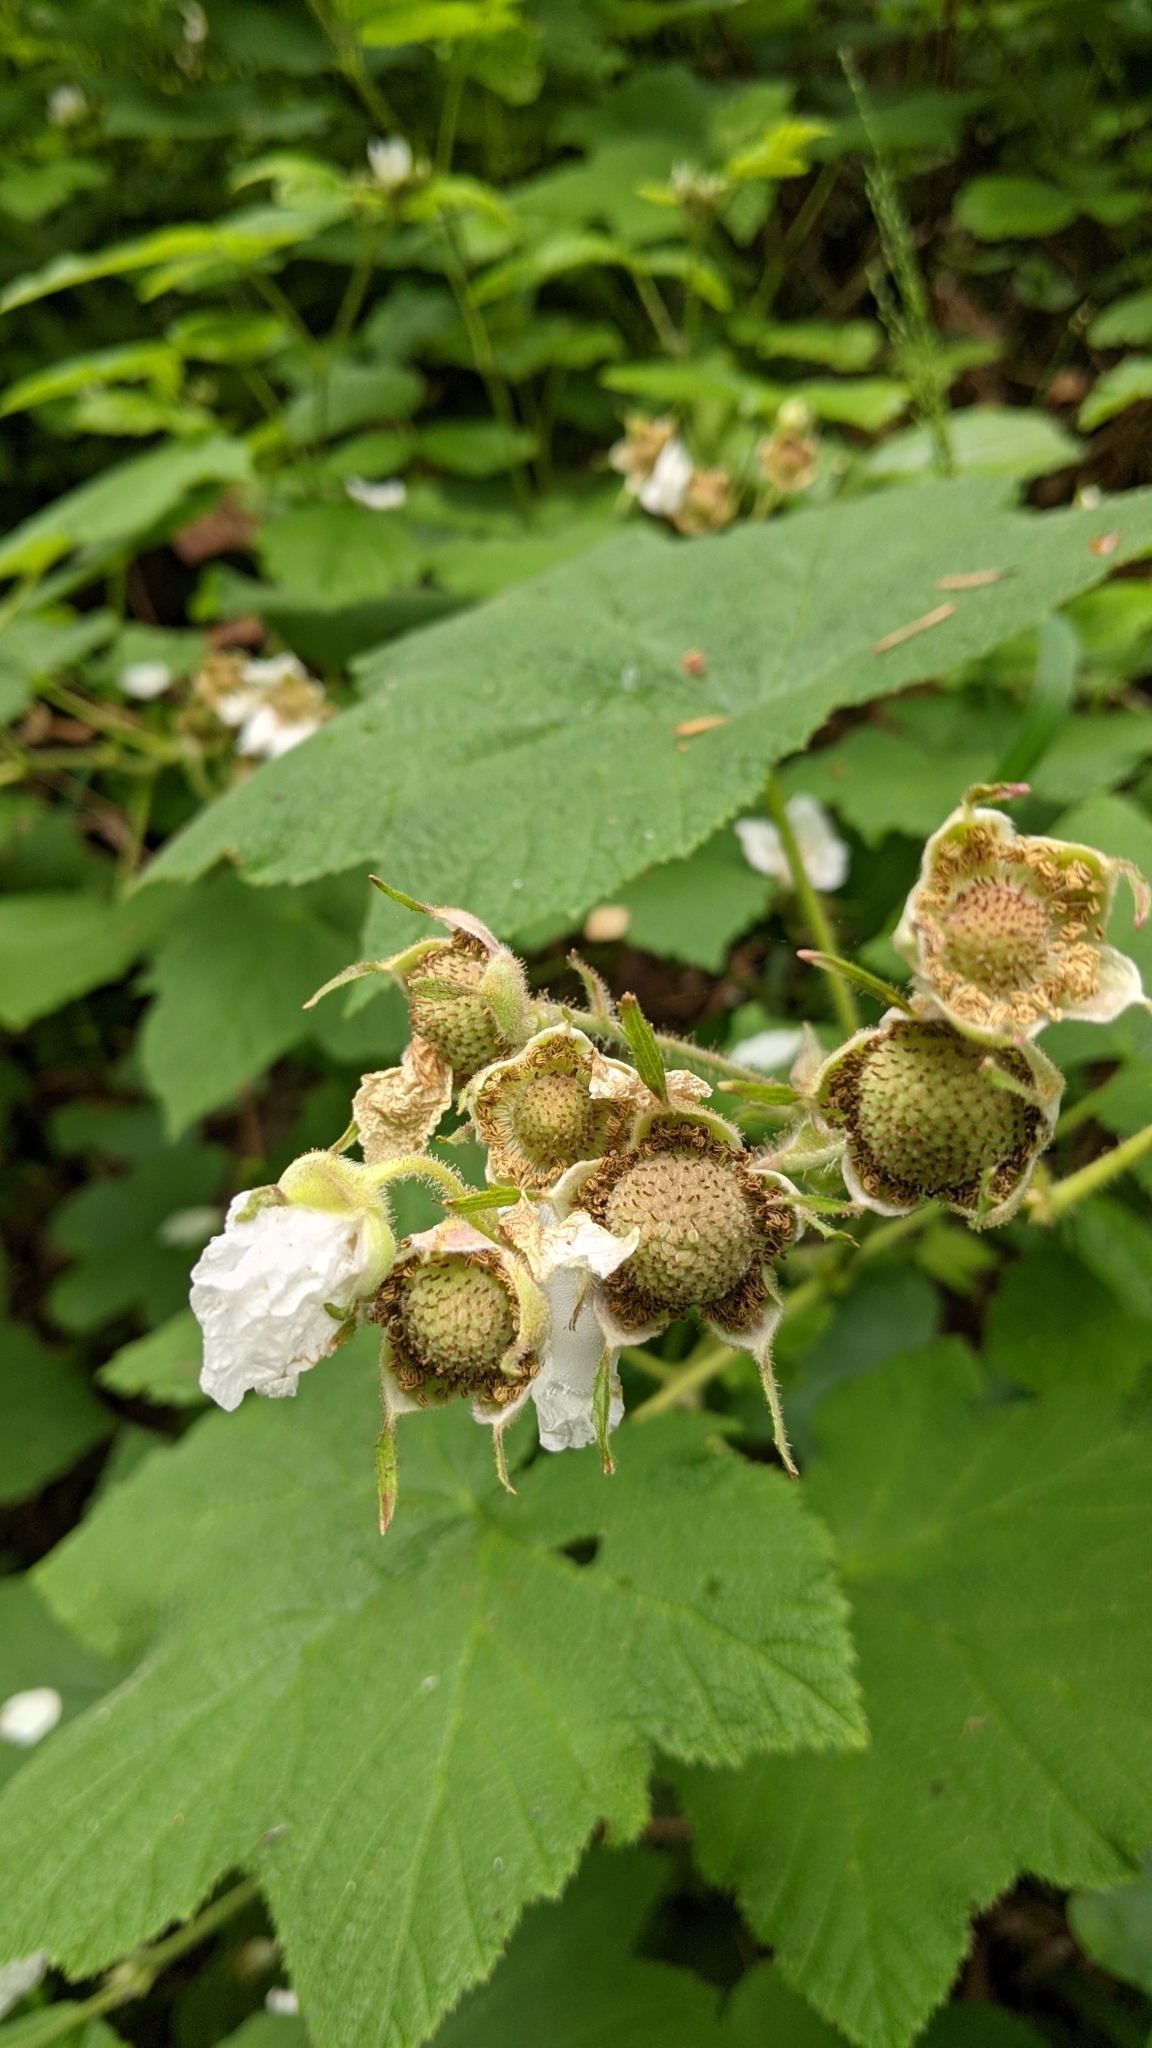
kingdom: Plantae
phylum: Tracheophyta
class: Magnoliopsida
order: Rosales
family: Rosaceae
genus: Rubus
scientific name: Rubus parviflorus
